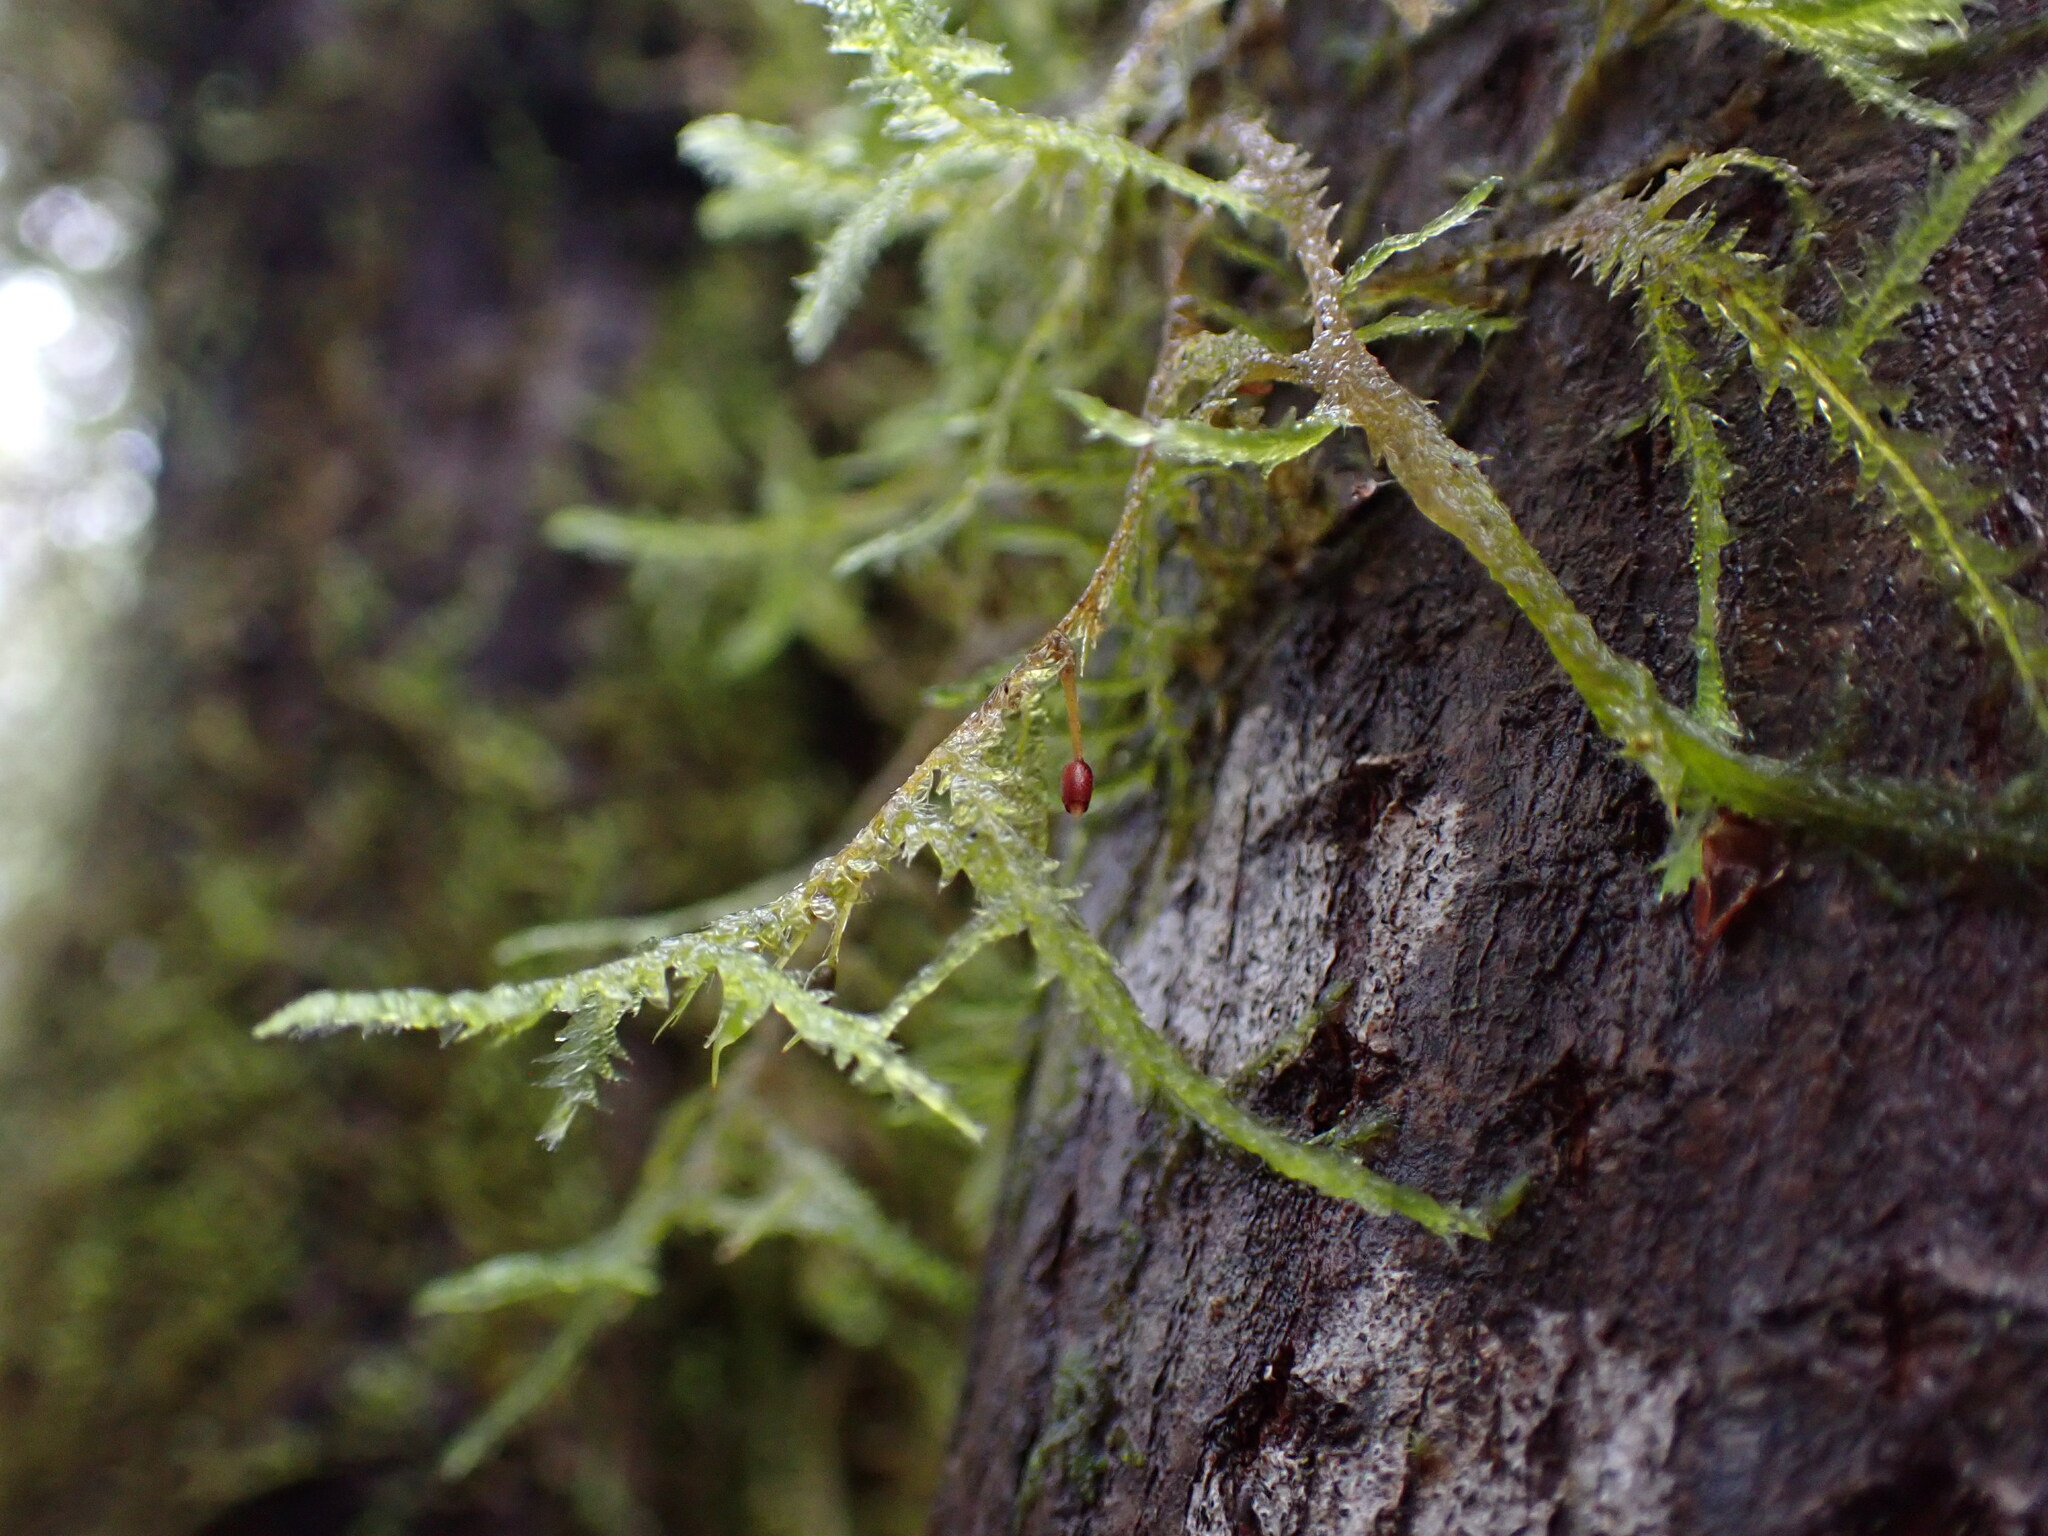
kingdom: Plantae
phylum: Bryophyta
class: Bryopsida
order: Hypnales
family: Neckeraceae
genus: Neckera
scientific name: Neckera douglasii
